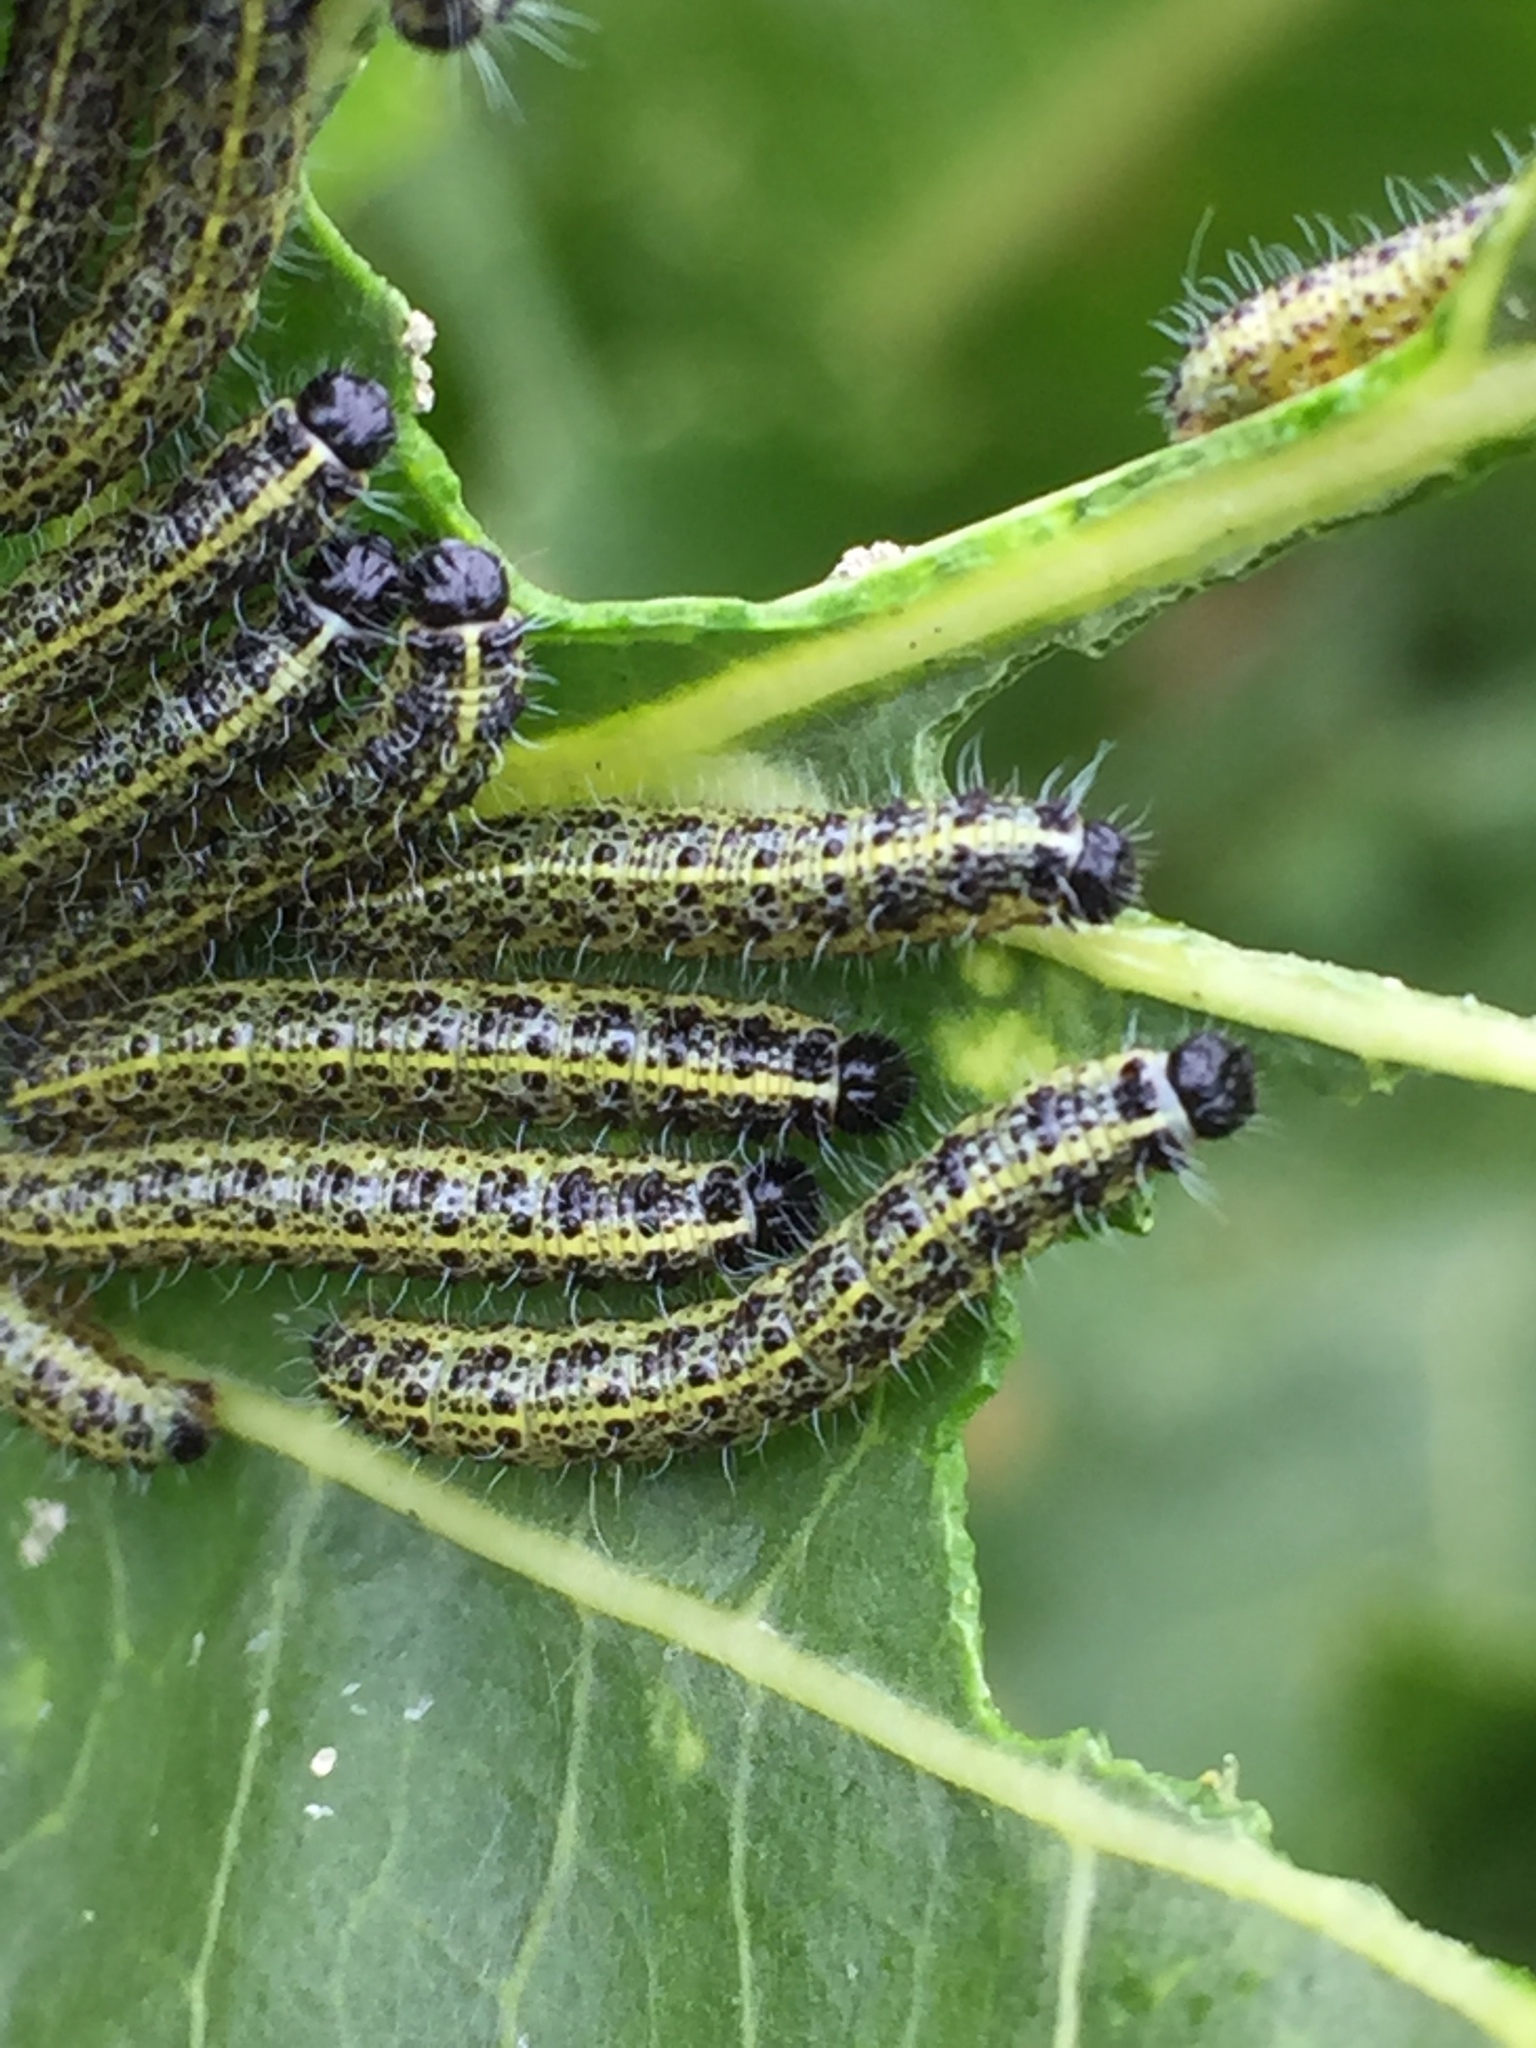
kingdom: Animalia
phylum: Arthropoda
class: Insecta
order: Lepidoptera
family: Pieridae
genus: Pieris
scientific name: Pieris brassicae
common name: Large white
